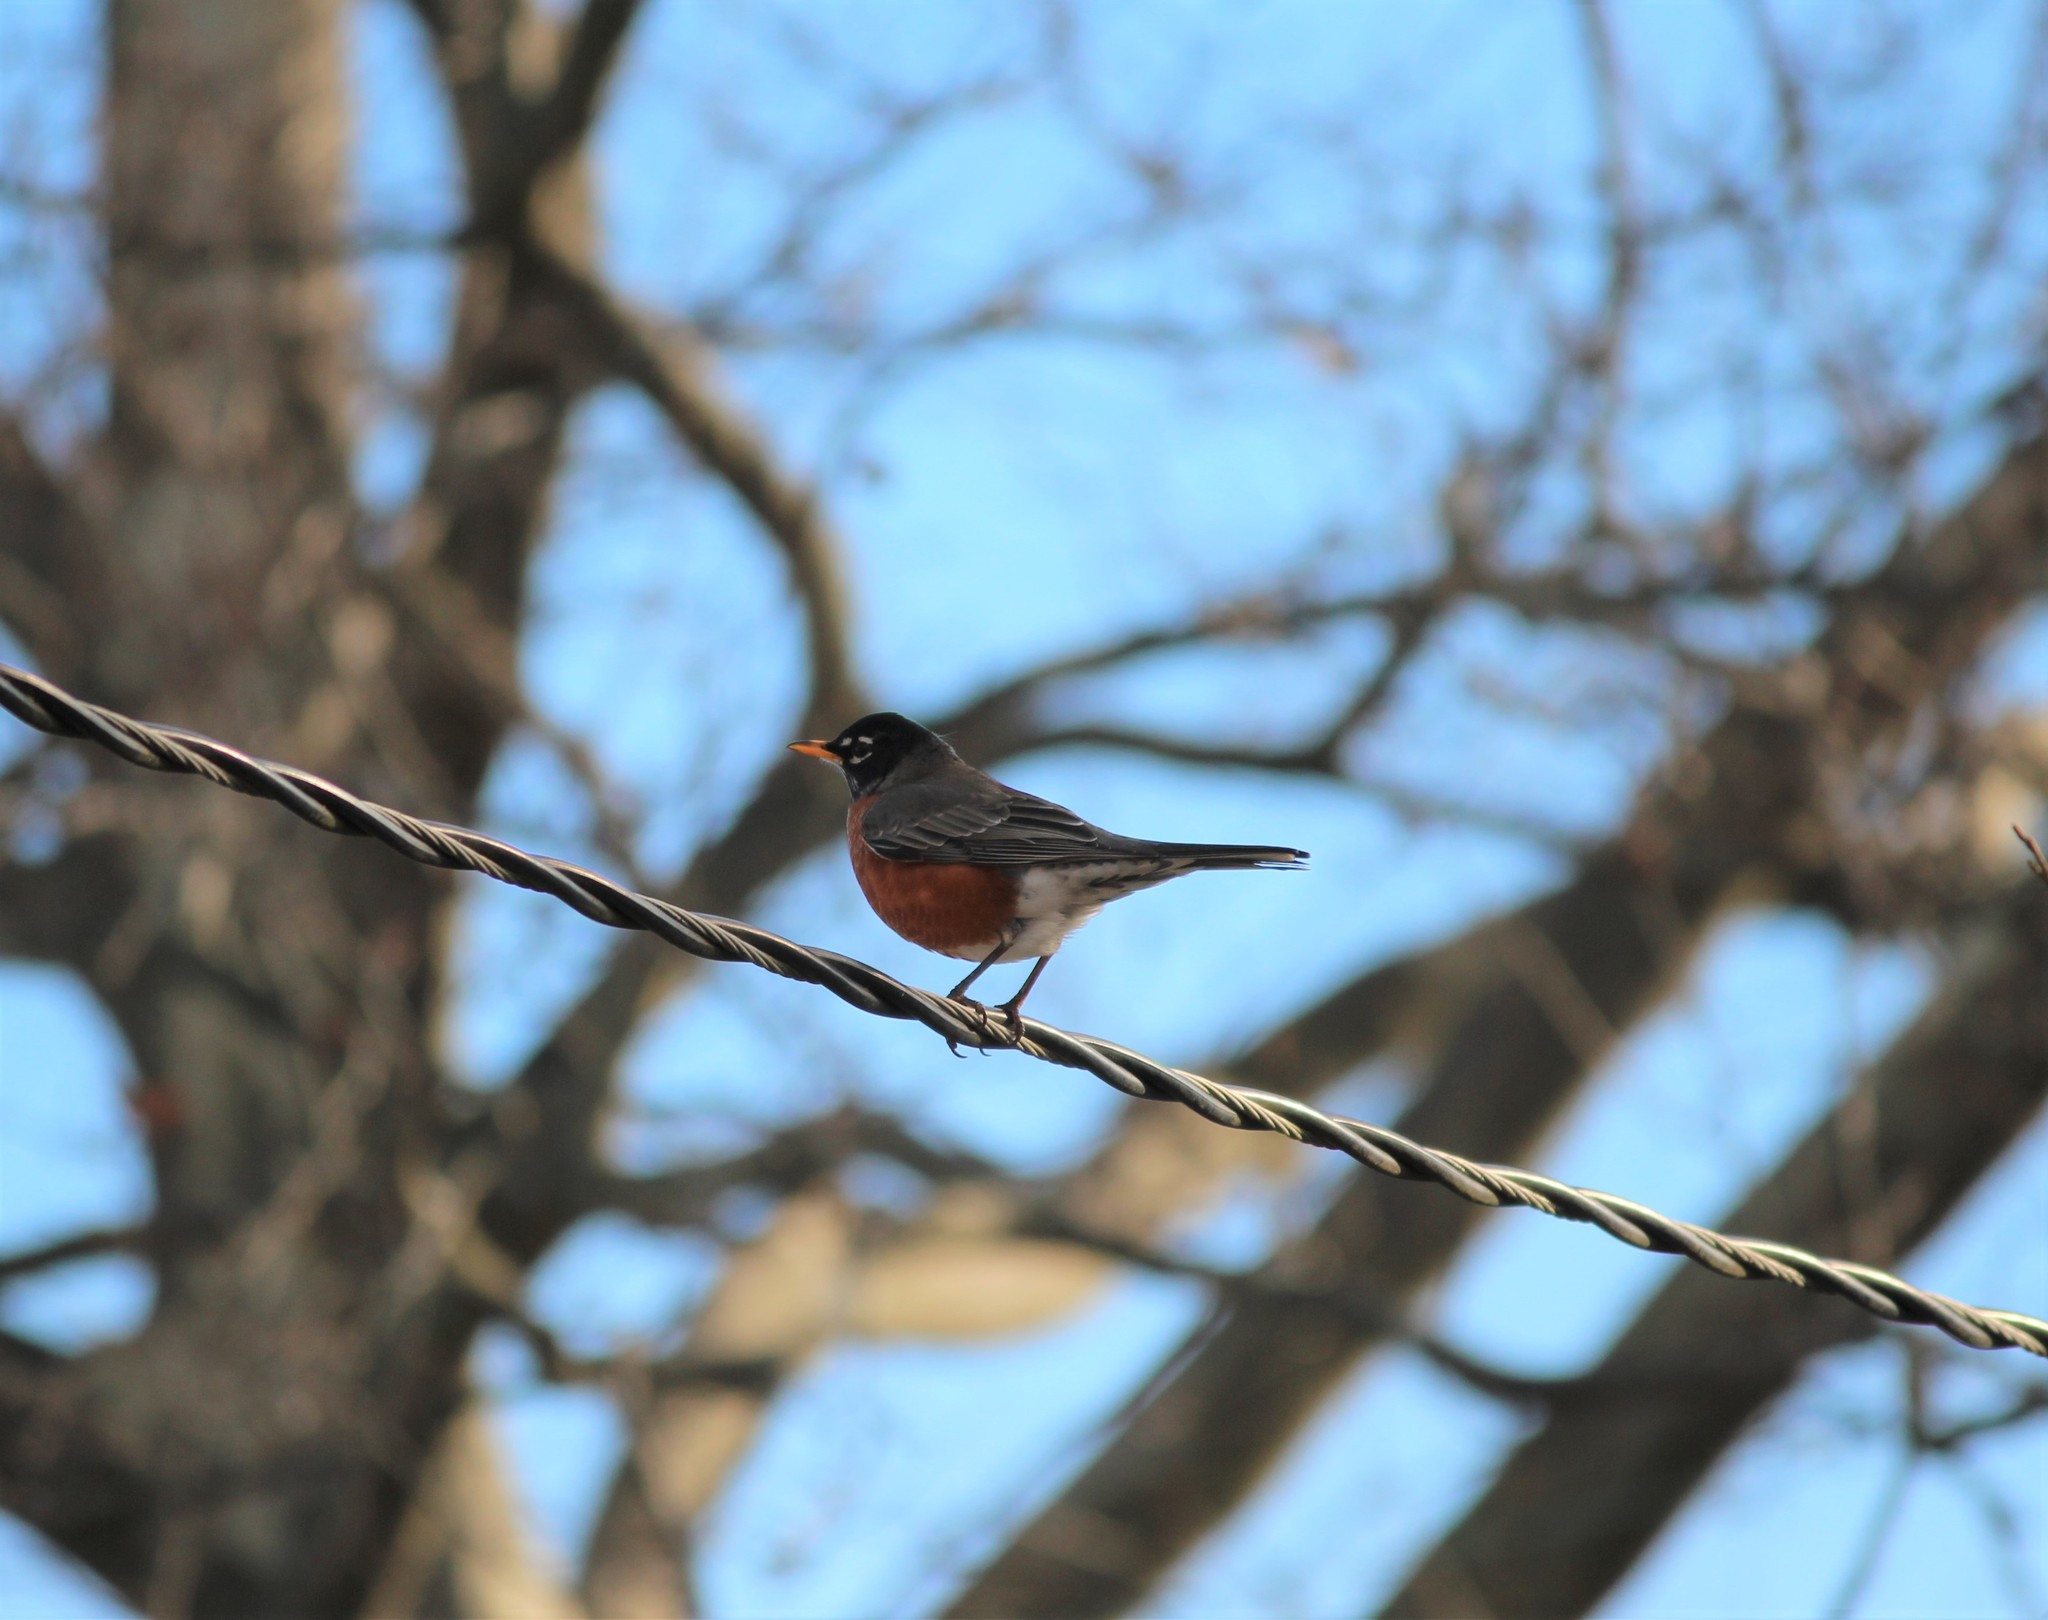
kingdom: Animalia
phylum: Chordata
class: Aves
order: Passeriformes
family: Turdidae
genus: Turdus
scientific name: Turdus migratorius
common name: American robin
